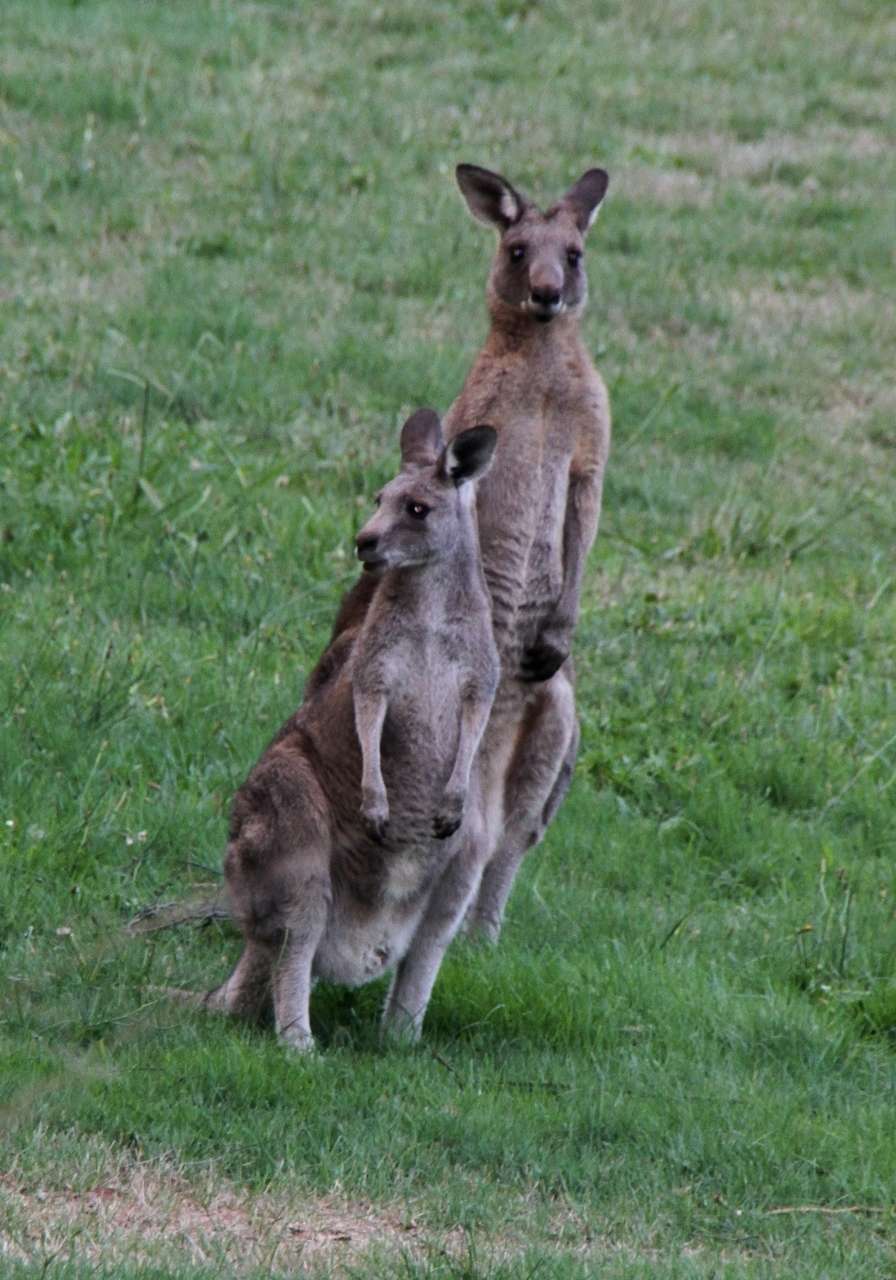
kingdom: Animalia
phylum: Chordata
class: Mammalia
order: Diprotodontia
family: Macropodidae
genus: Macropus
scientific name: Macropus giganteus
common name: Eastern grey kangaroo
